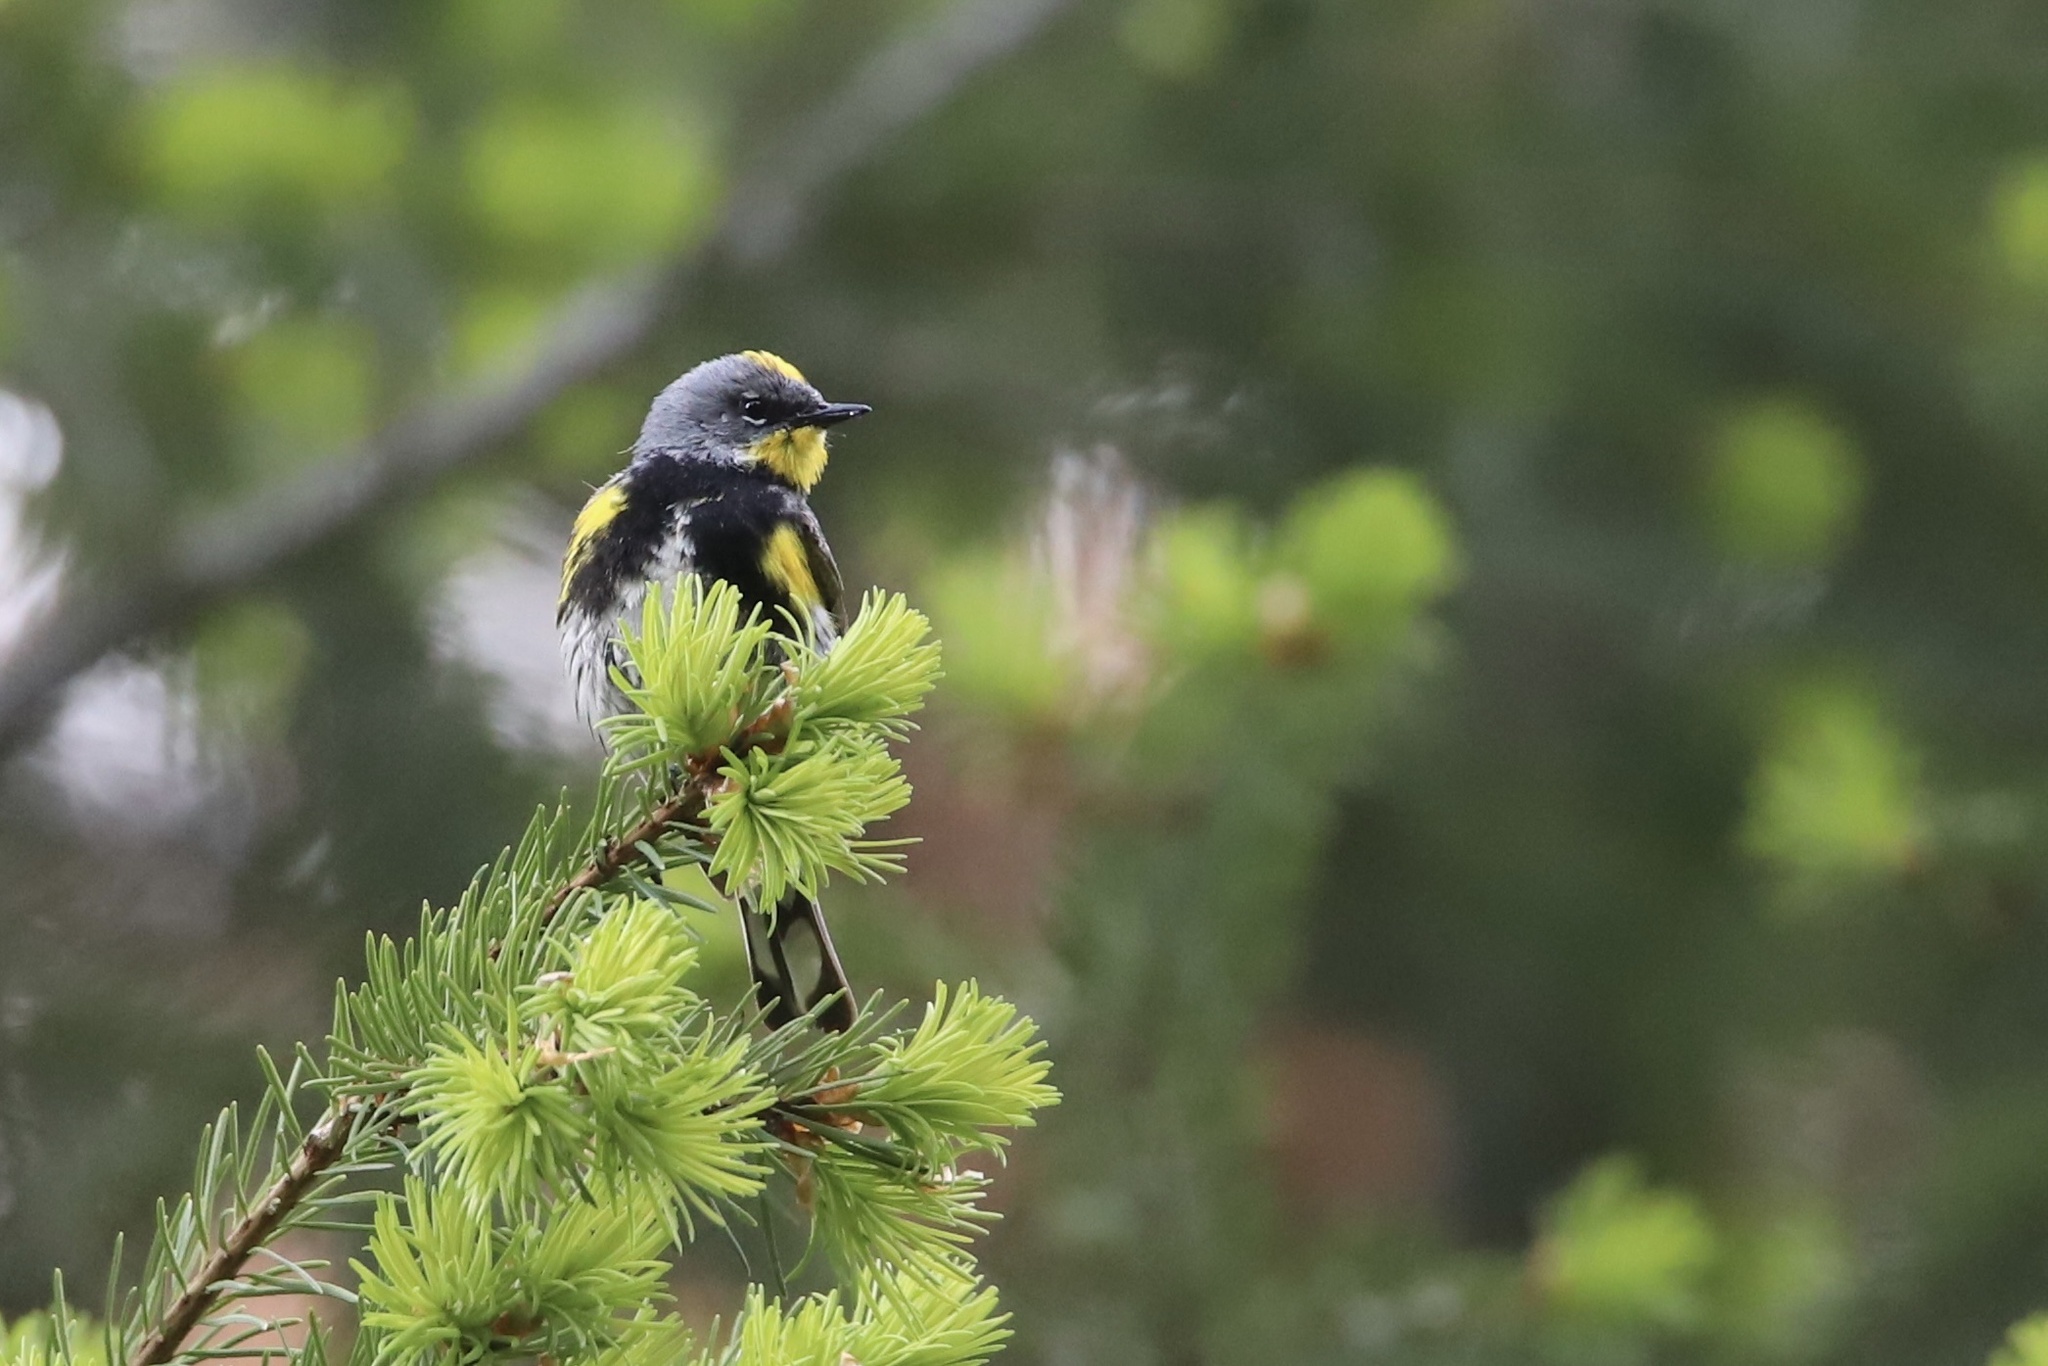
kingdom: Animalia
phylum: Chordata
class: Aves
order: Passeriformes
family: Parulidae
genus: Setophaga
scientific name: Setophaga auduboni
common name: Audubon's warbler
